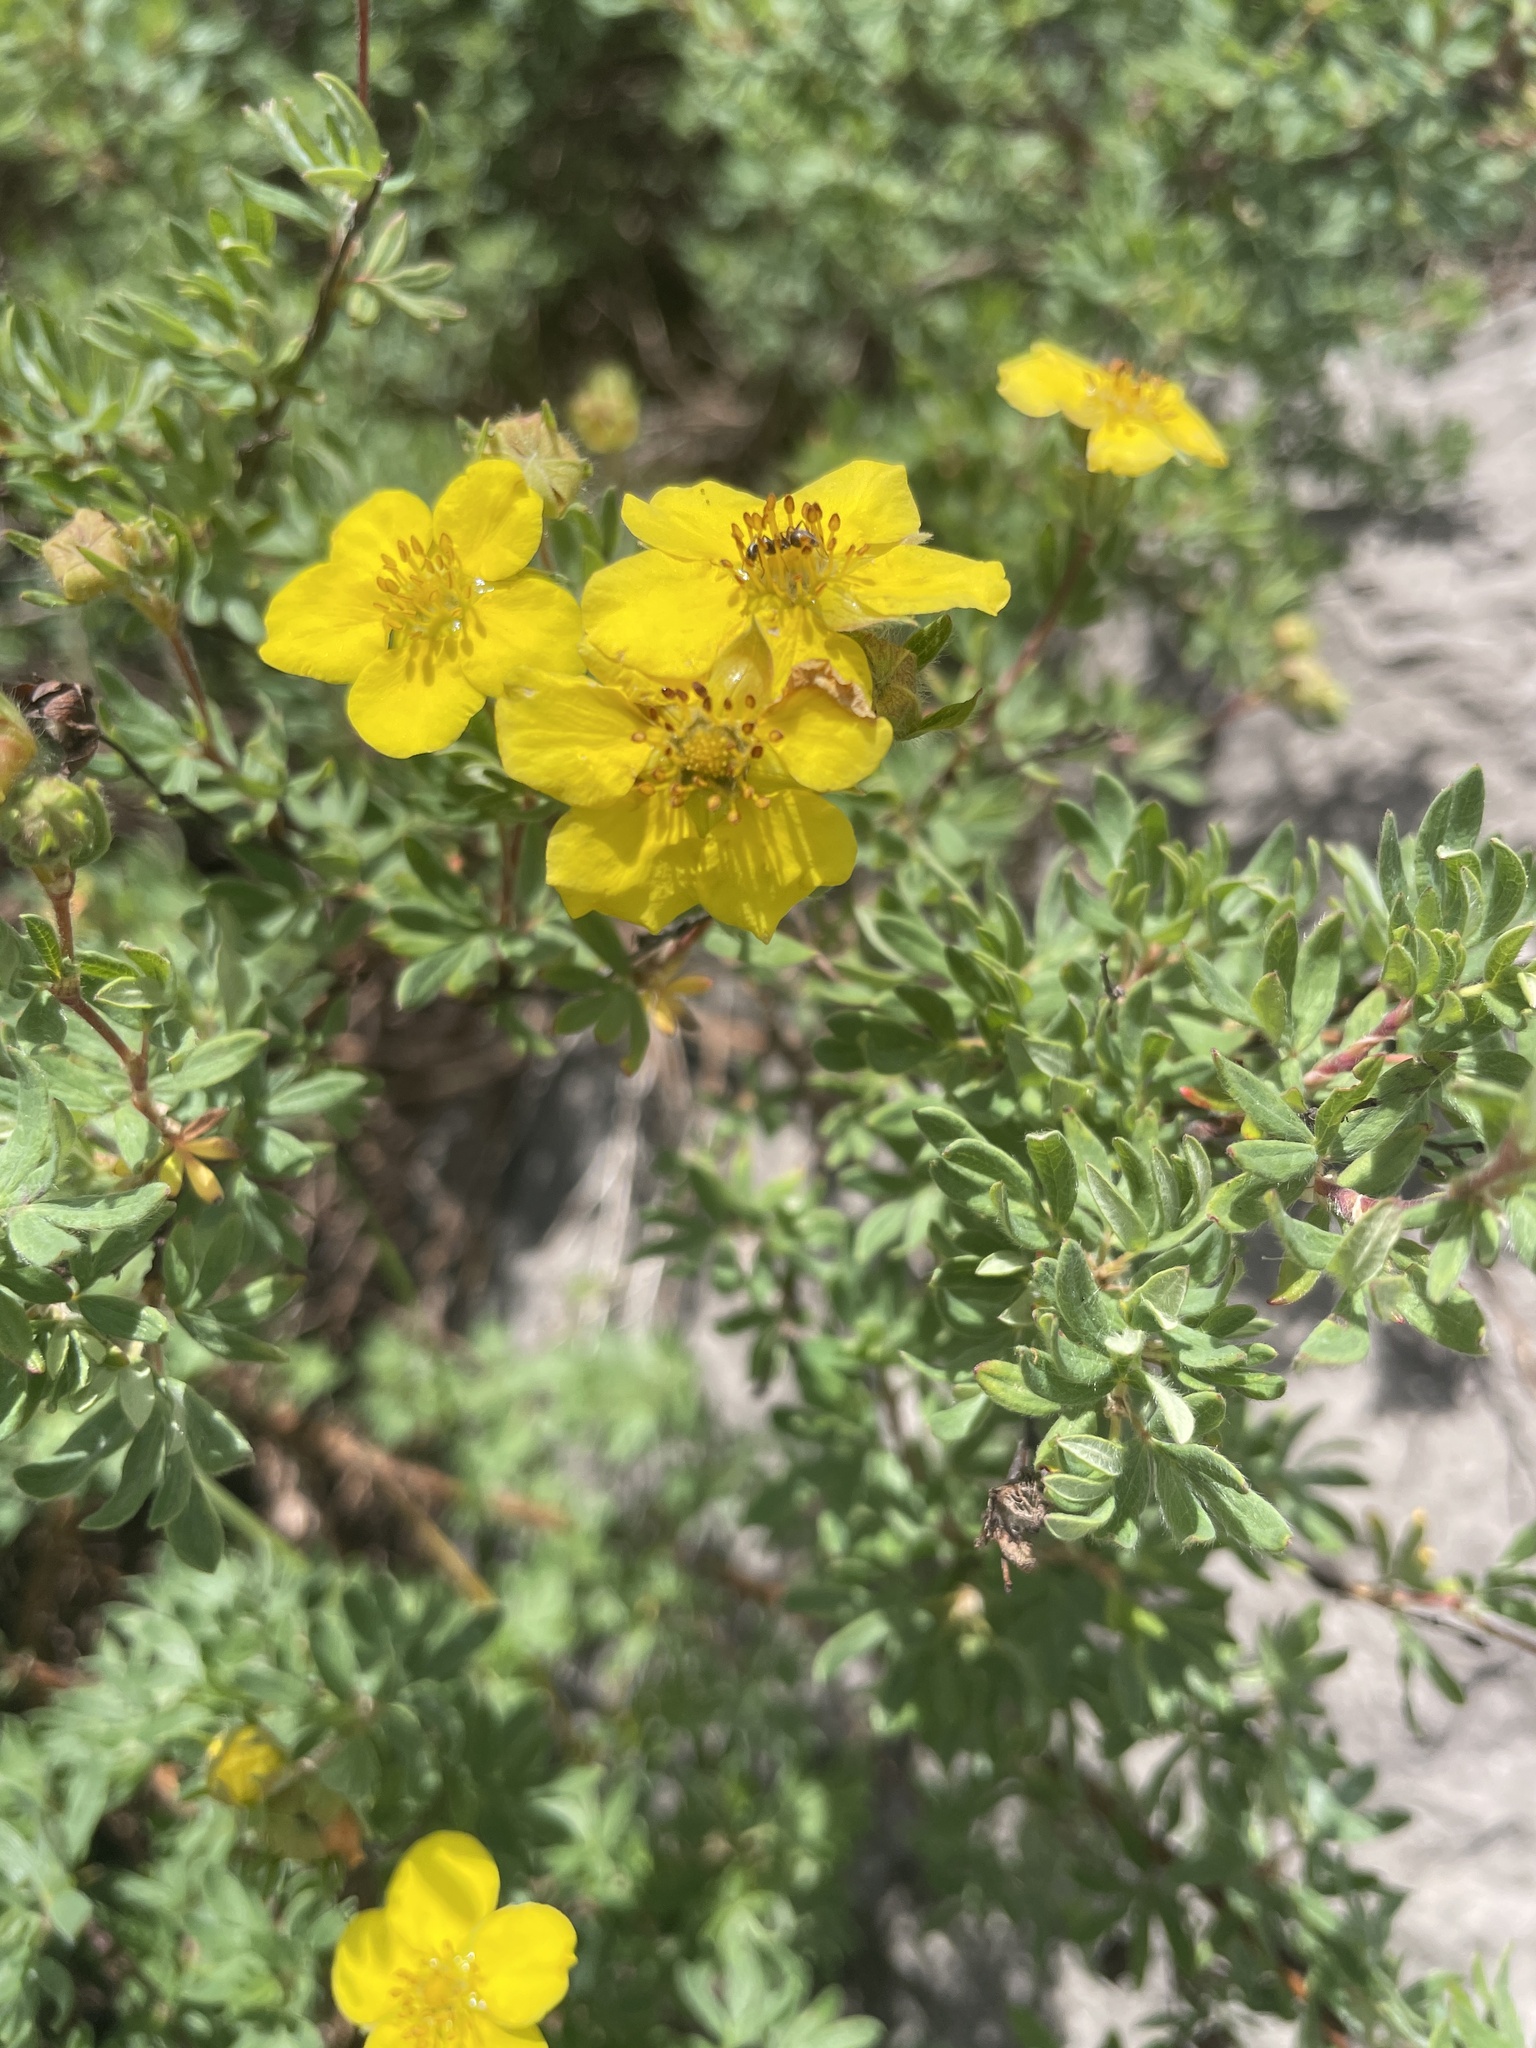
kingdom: Plantae
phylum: Tracheophyta
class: Magnoliopsida
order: Rosales
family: Rosaceae
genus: Dasiphora
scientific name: Dasiphora fruticosa
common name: Shrubby cinquefoil
